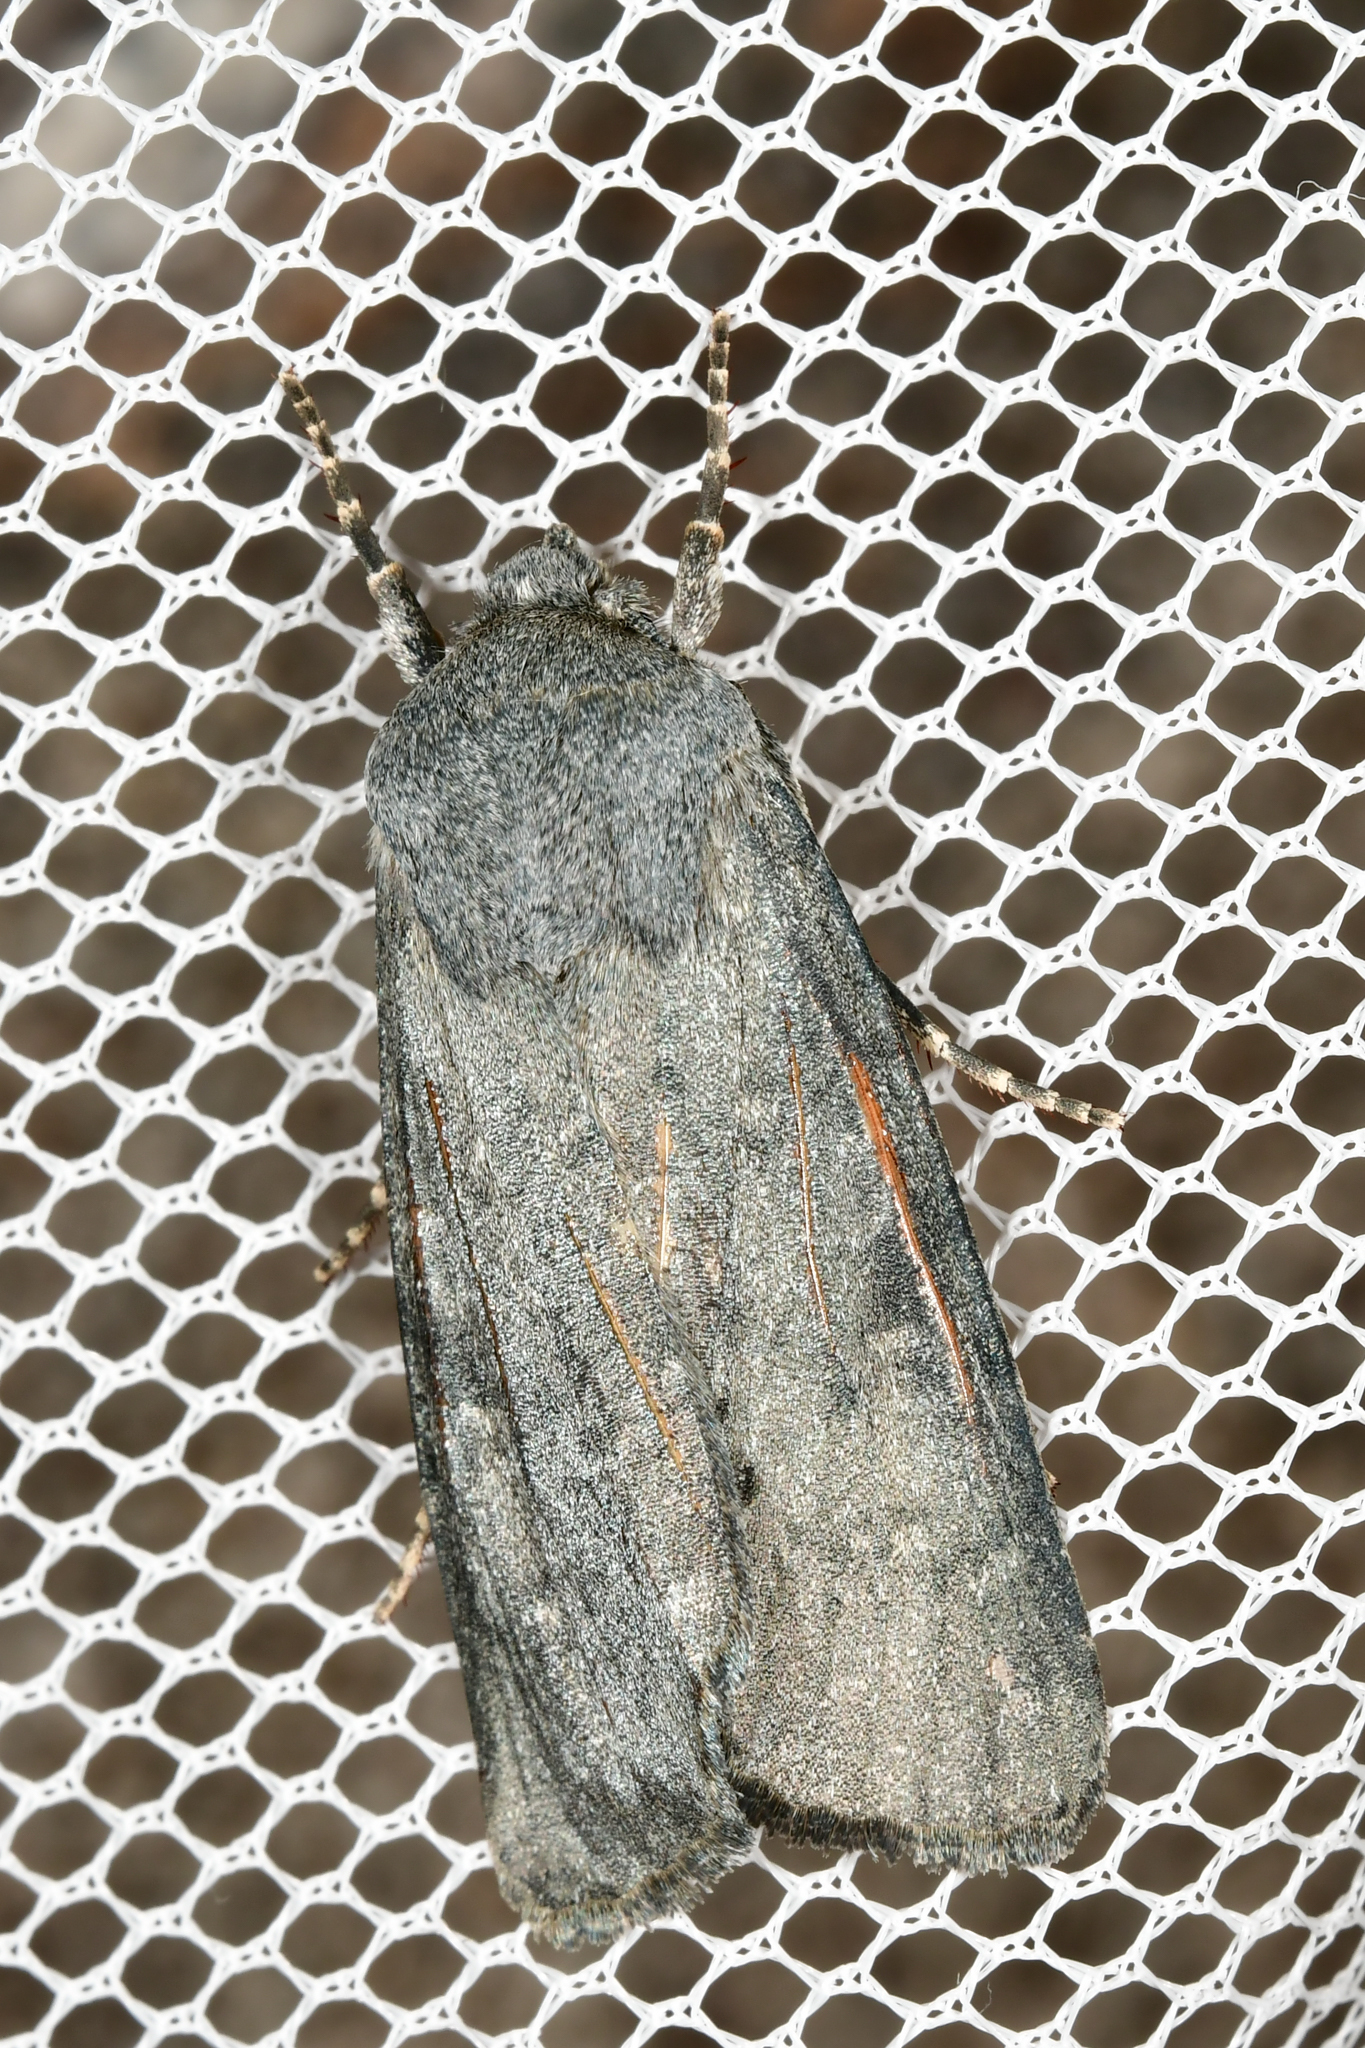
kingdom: Animalia
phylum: Arthropoda
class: Insecta
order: Lepidoptera
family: Noctuidae
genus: Physetica
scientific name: Physetica caerulea
